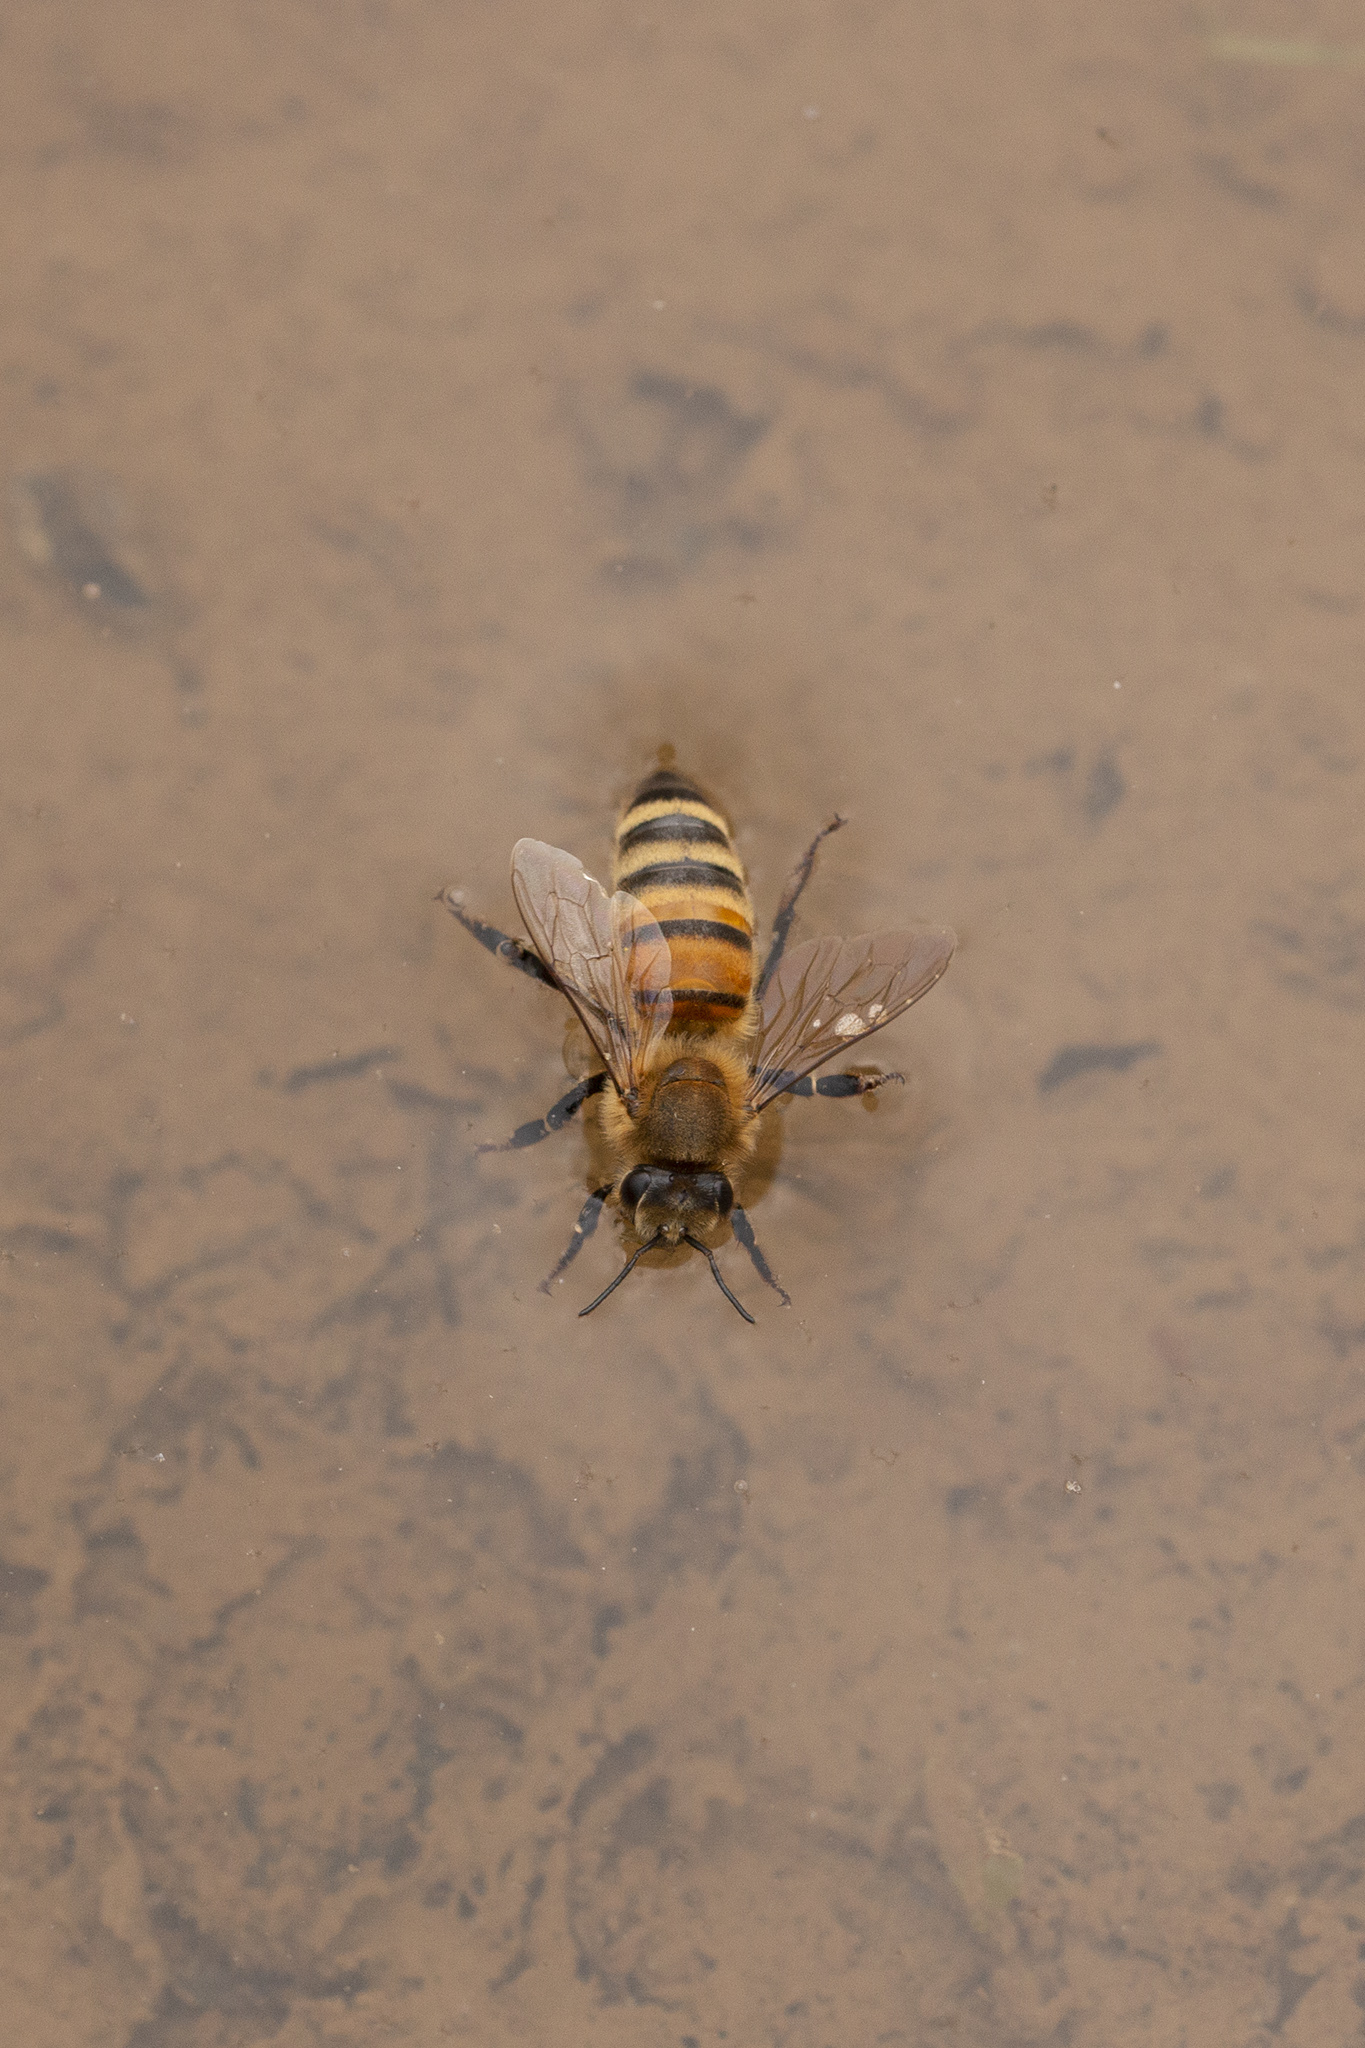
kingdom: Animalia
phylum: Arthropoda
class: Insecta
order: Hymenoptera
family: Apidae
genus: Apis
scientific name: Apis mellifera
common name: Honey bee
